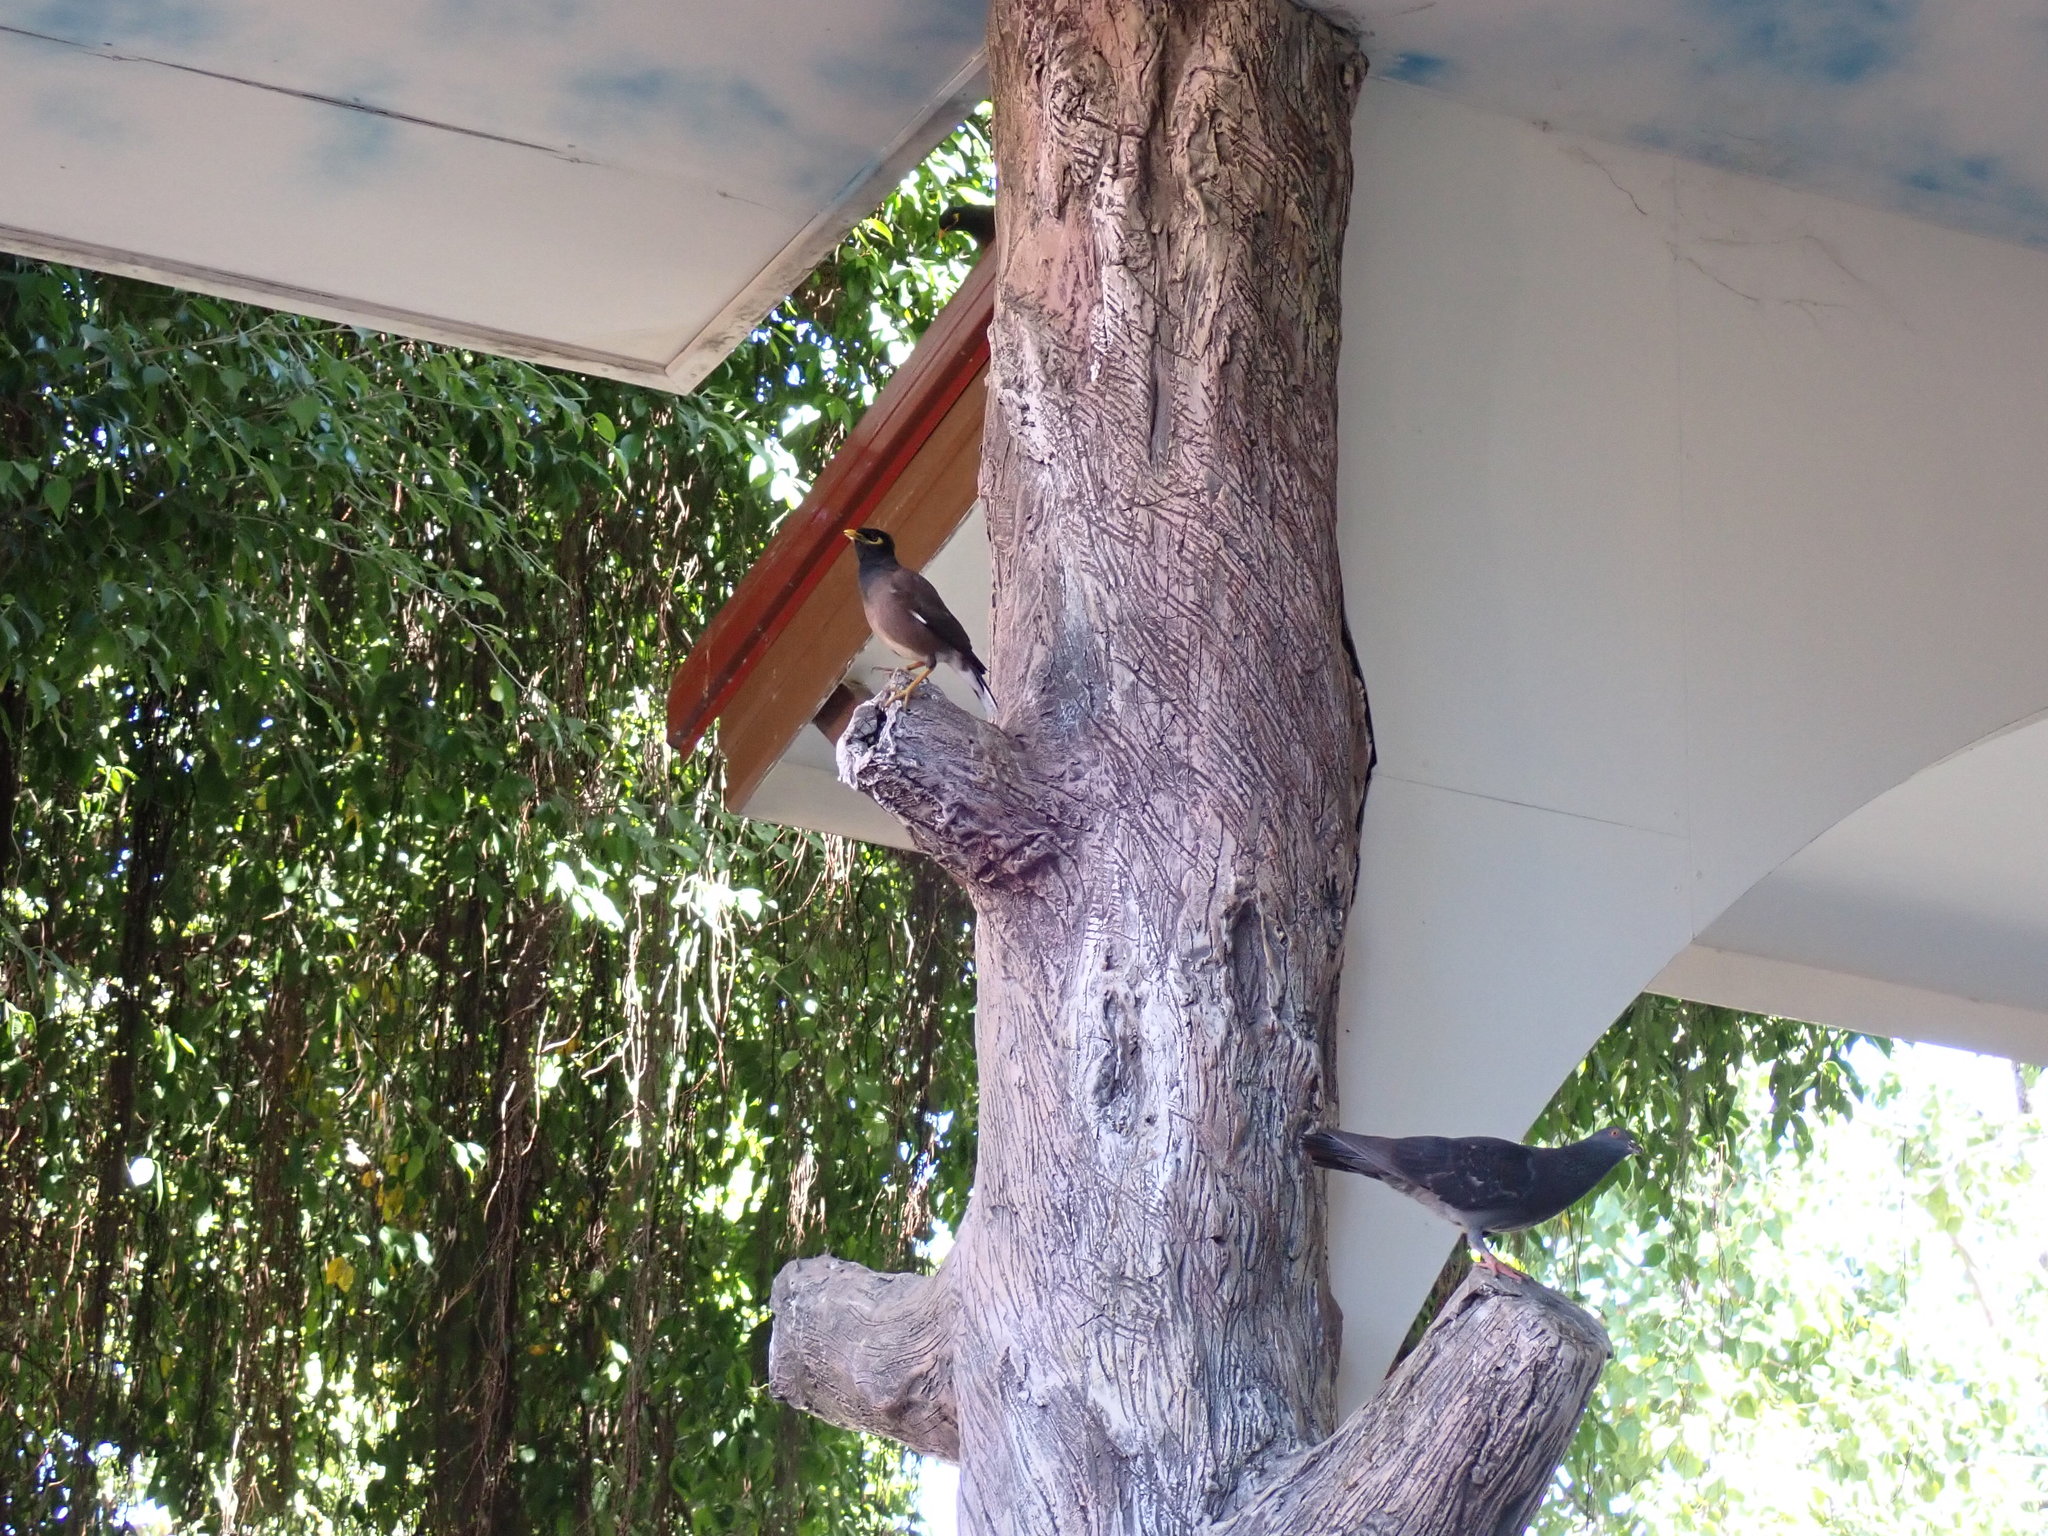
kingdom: Animalia
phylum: Chordata
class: Aves
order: Passeriformes
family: Sturnidae
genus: Acridotheres
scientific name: Acridotheres tristis
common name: Common myna
